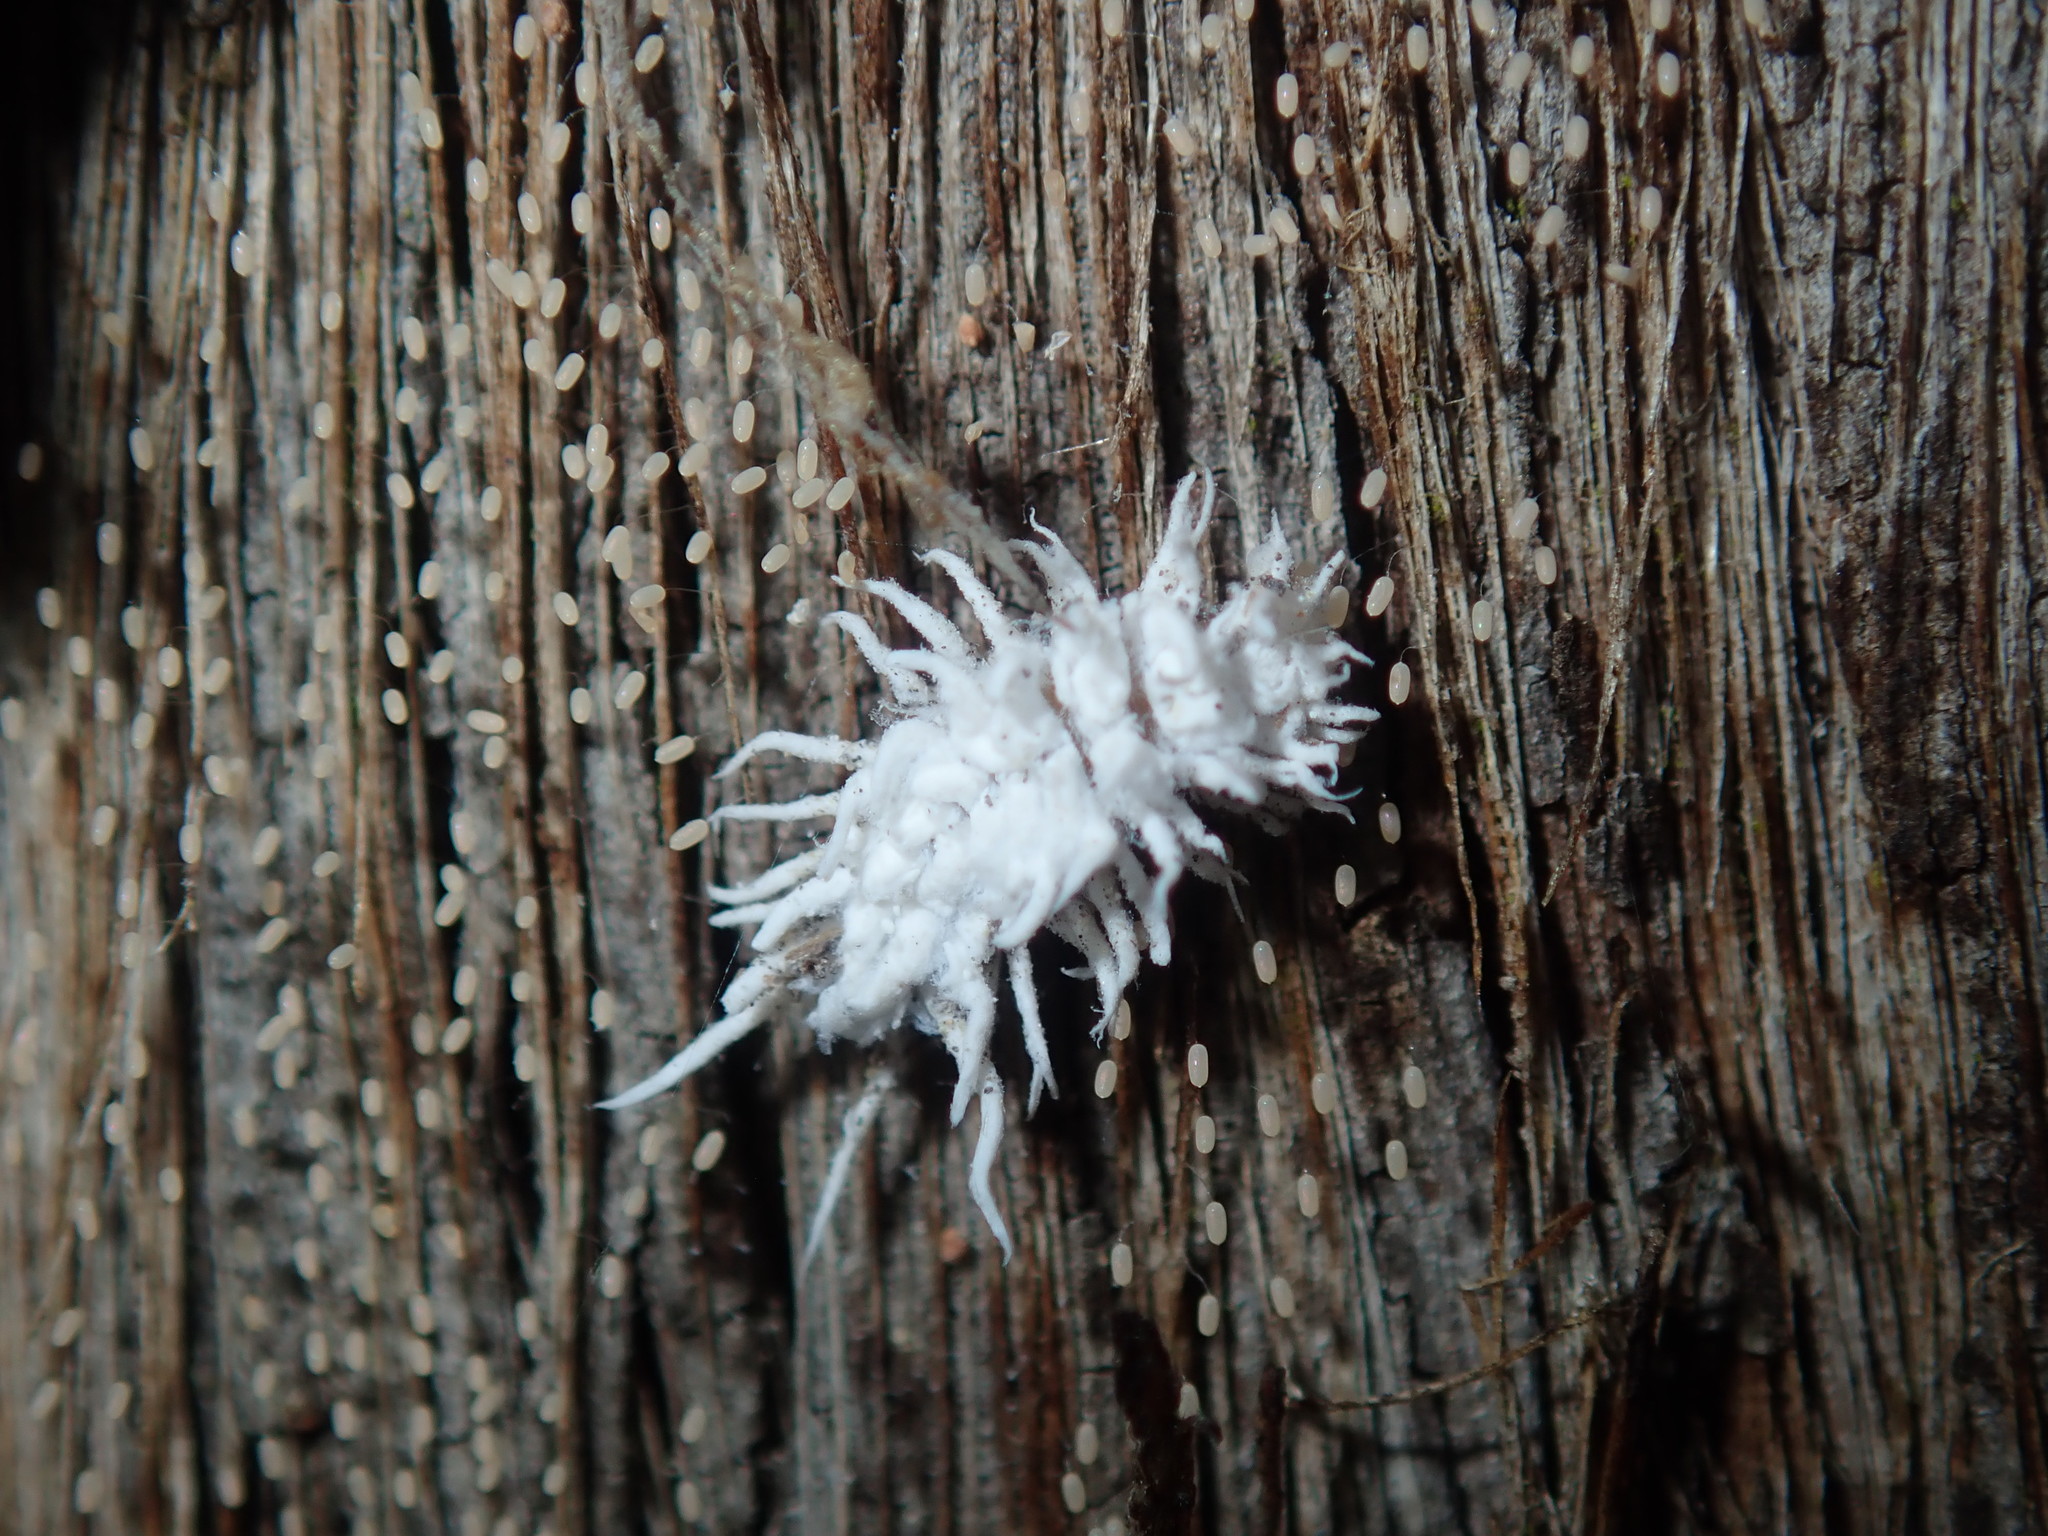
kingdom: Animalia
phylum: Arthropoda
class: Insecta
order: Coleoptera
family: Coccinellidae
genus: Cryptolaemus
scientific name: Cryptolaemus montrouzieri
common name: Mealybug destroyer
